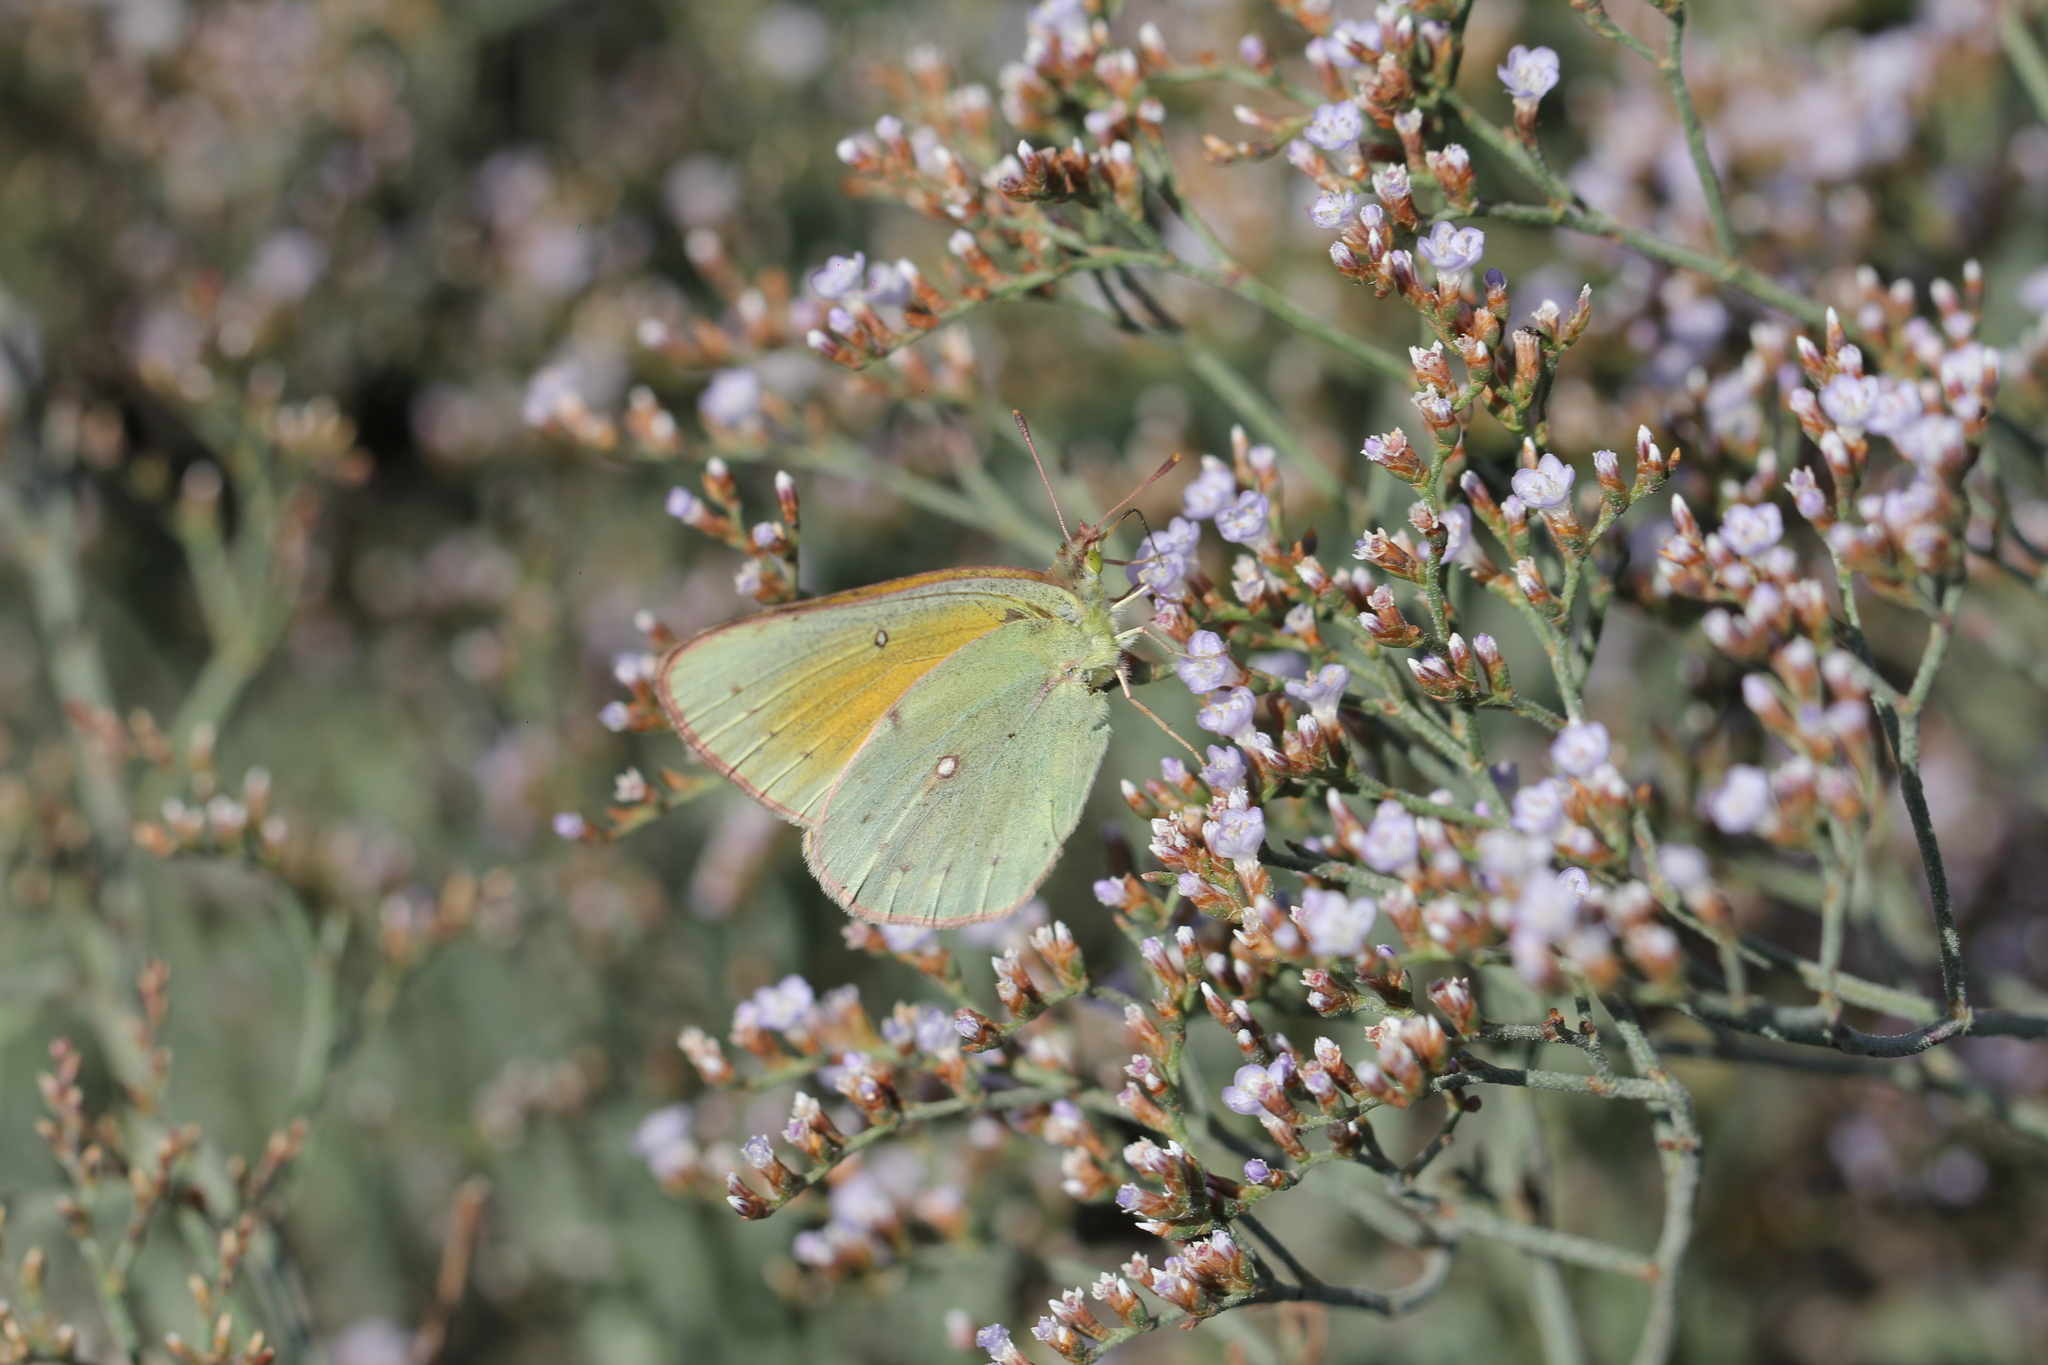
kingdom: Animalia
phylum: Arthropoda
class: Insecta
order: Lepidoptera
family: Pieridae
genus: Colias
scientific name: Colias lesbia
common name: Lesbia clouded yellow
